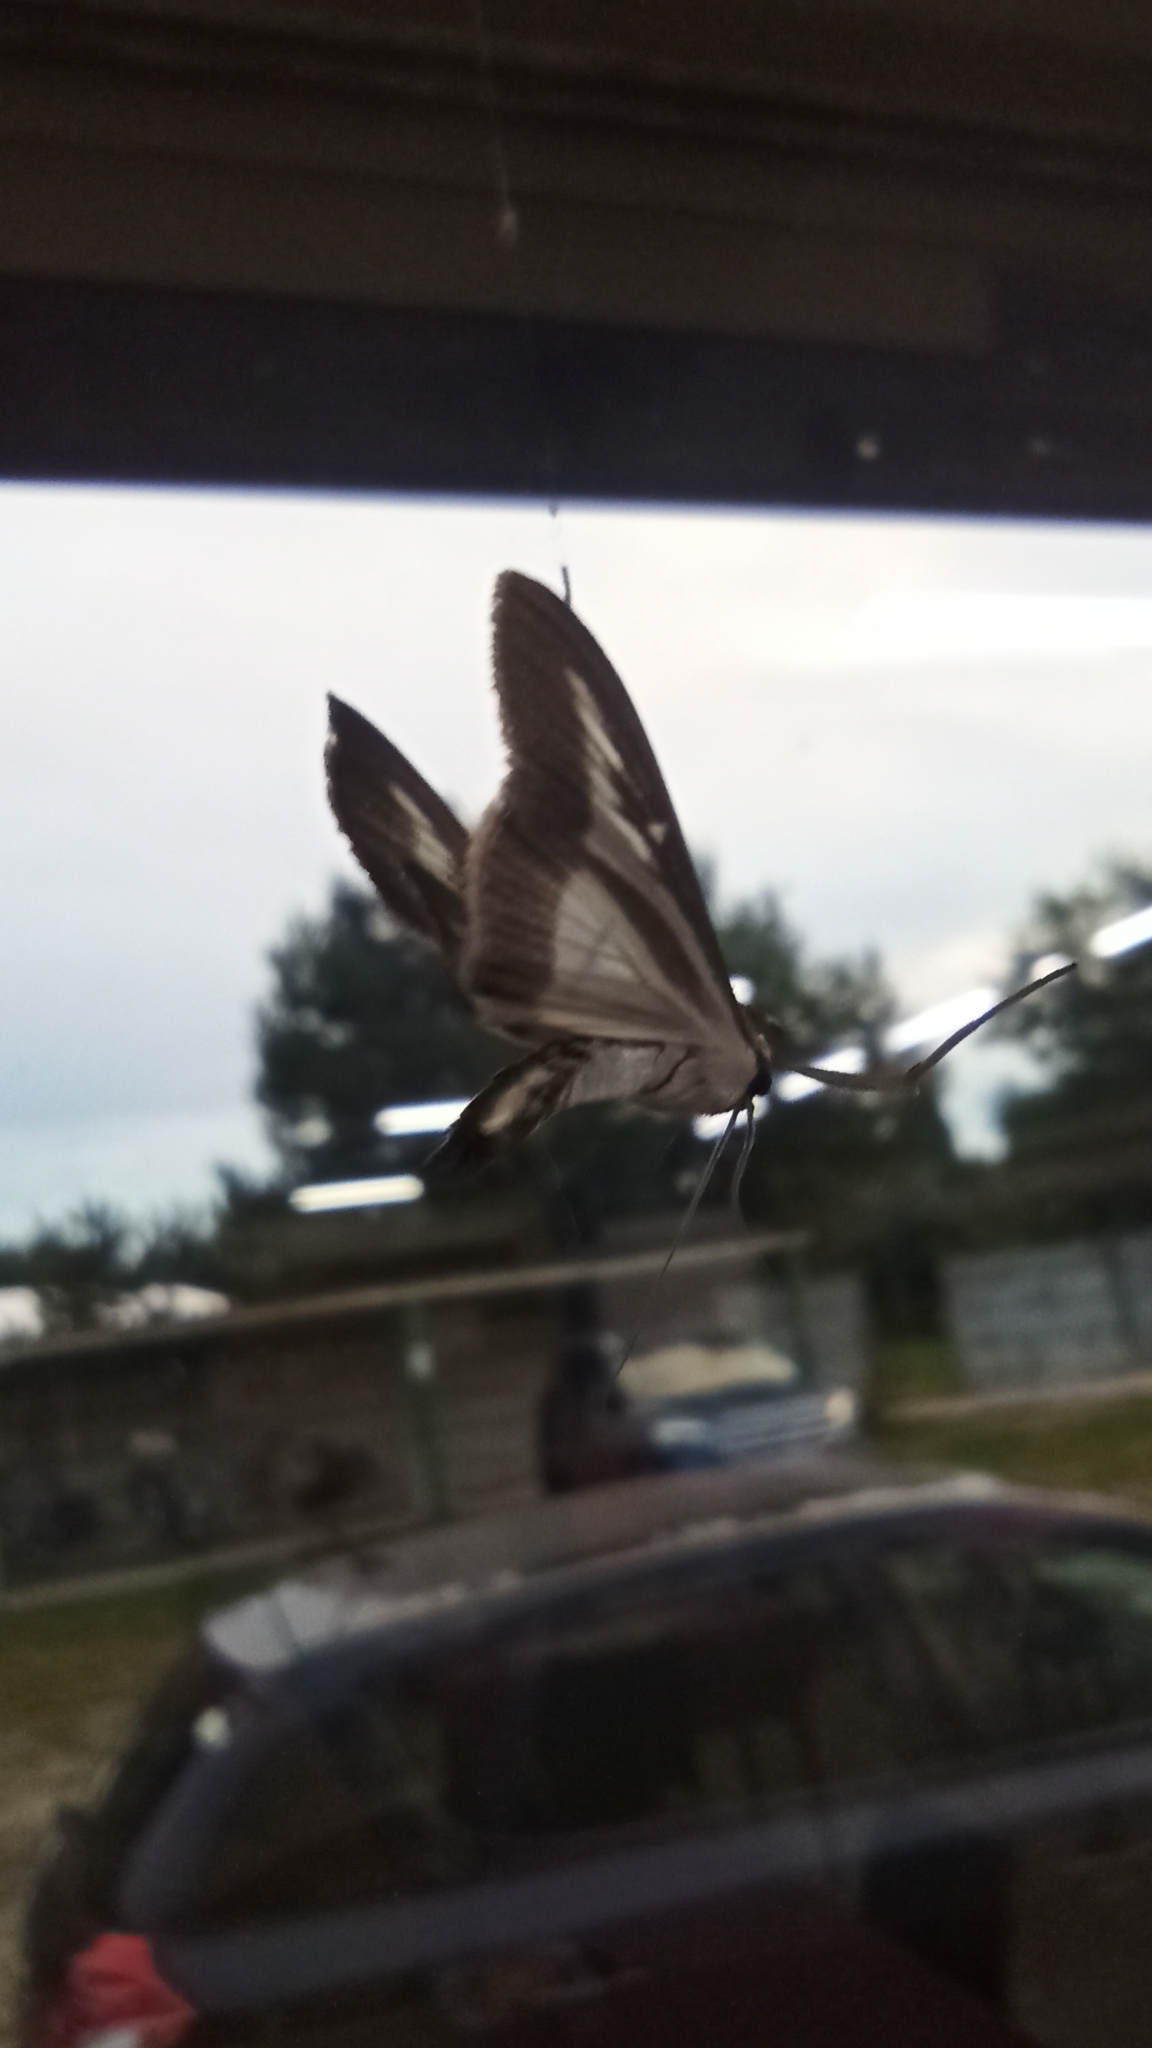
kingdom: Animalia
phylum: Arthropoda
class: Insecta
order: Lepidoptera
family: Crambidae
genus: Cydalima
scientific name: Cydalima perspectalis
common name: Box tree moth
